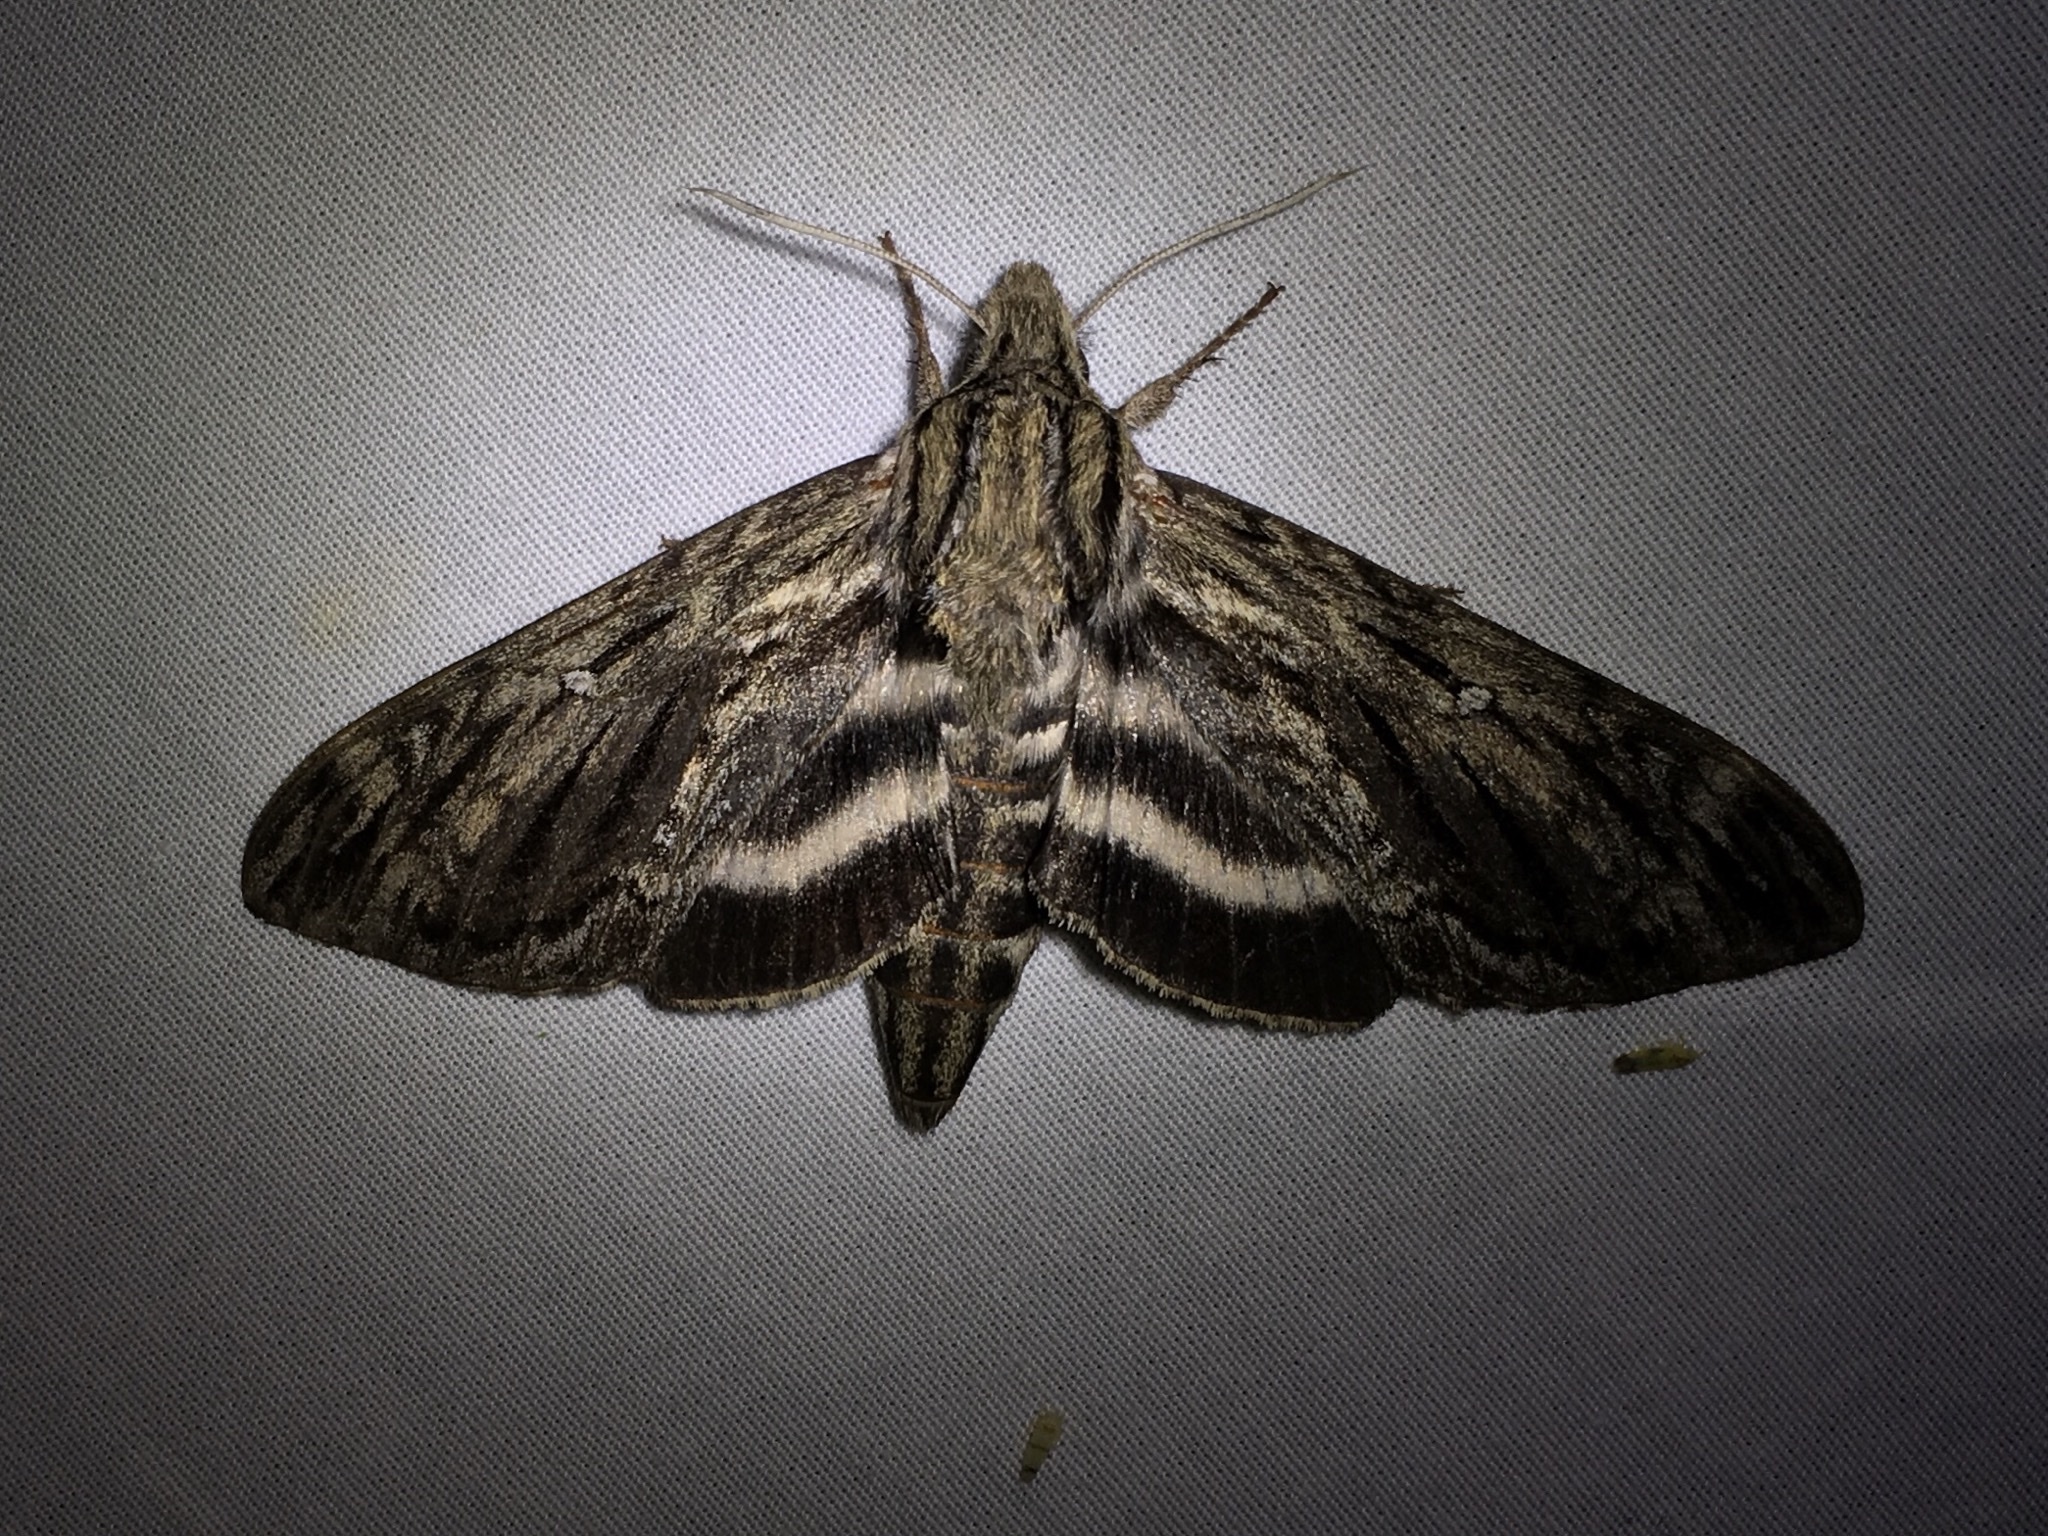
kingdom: Animalia
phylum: Arthropoda
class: Insecta
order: Lepidoptera
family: Sphingidae
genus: Lintneria
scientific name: Lintneria eremitus
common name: Hermit sphinx
